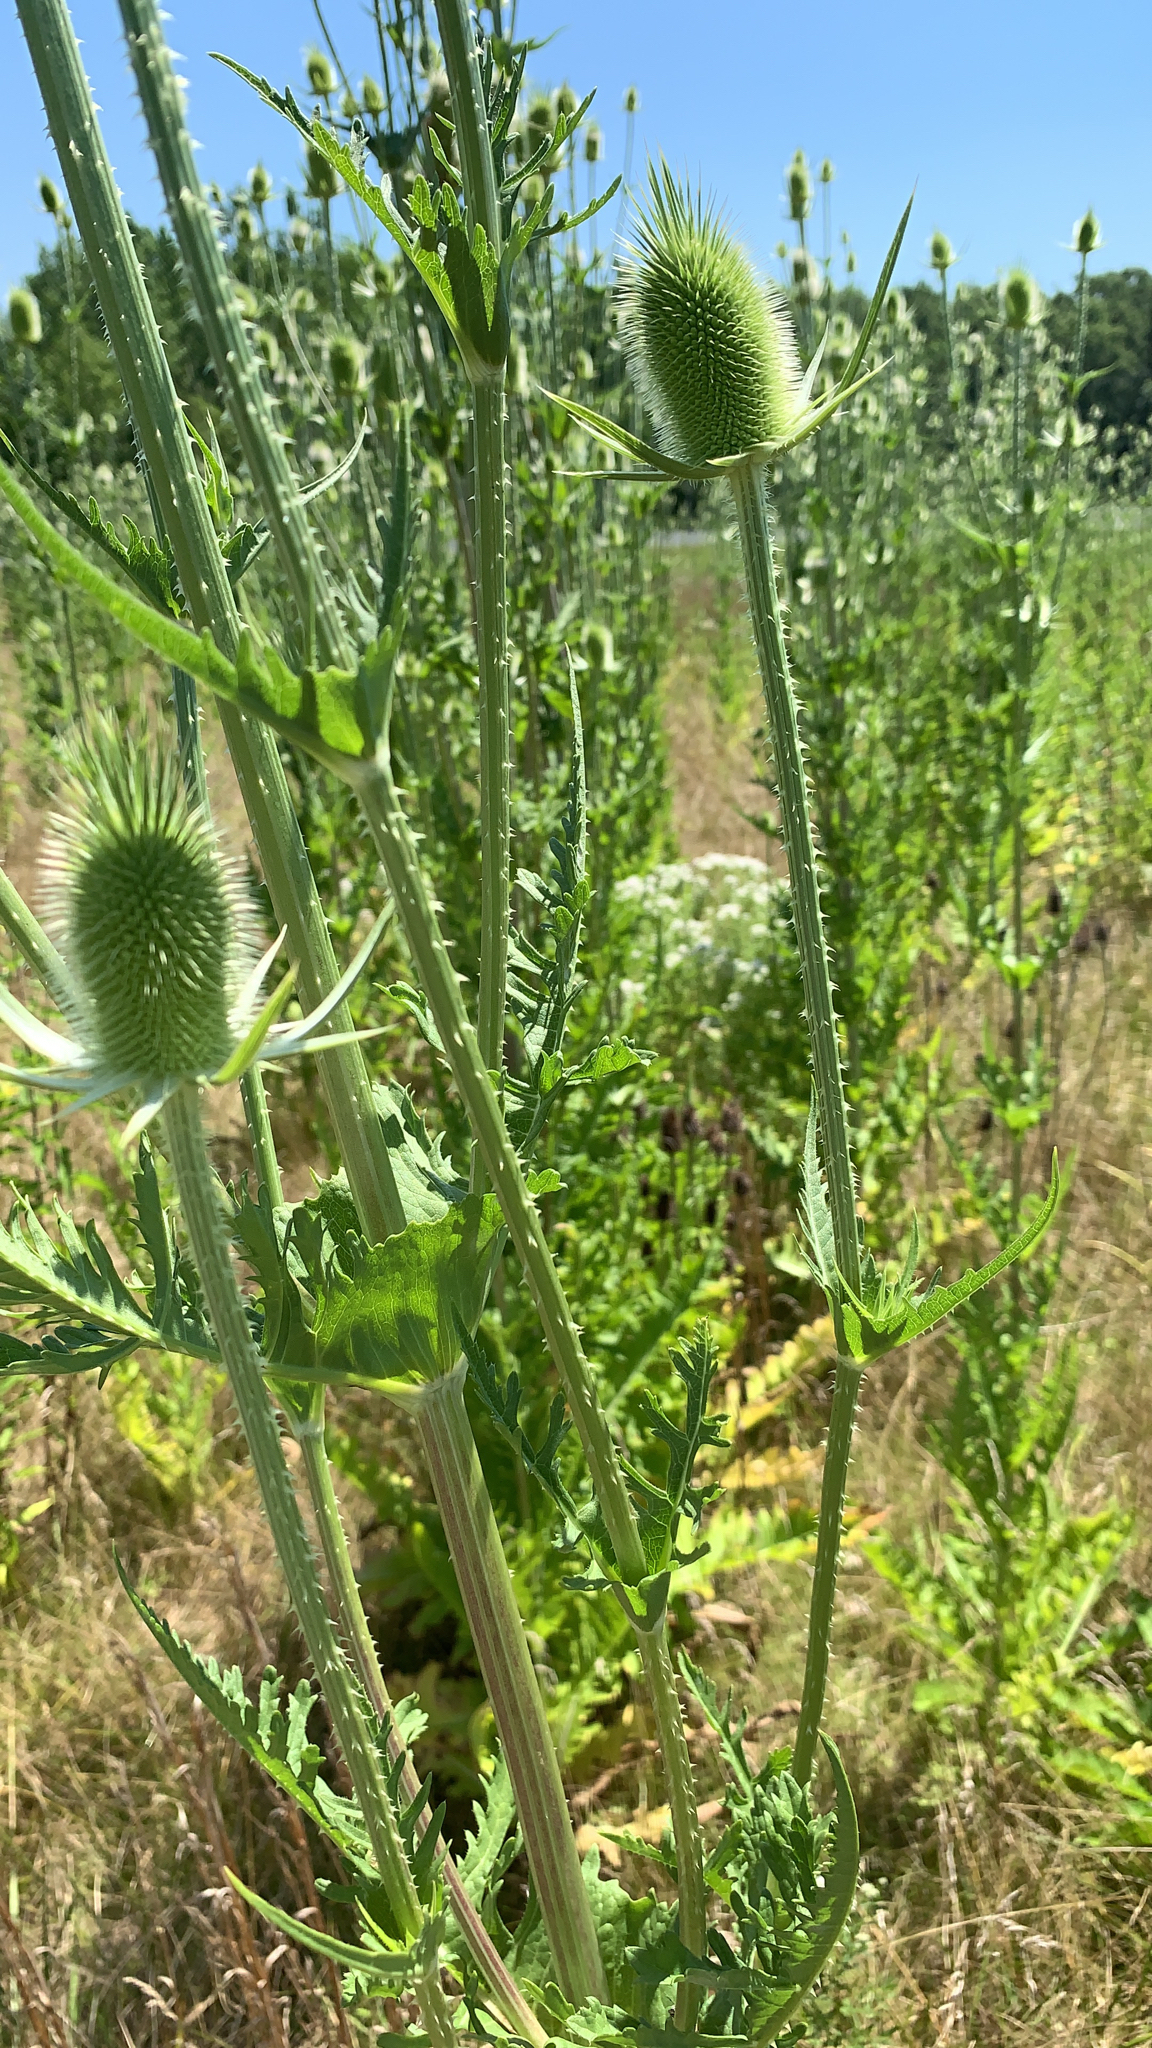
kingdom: Plantae
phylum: Tracheophyta
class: Magnoliopsida
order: Dipsacales
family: Caprifoliaceae
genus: Dipsacus
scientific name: Dipsacus laciniatus
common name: Cut-leaved teasel
